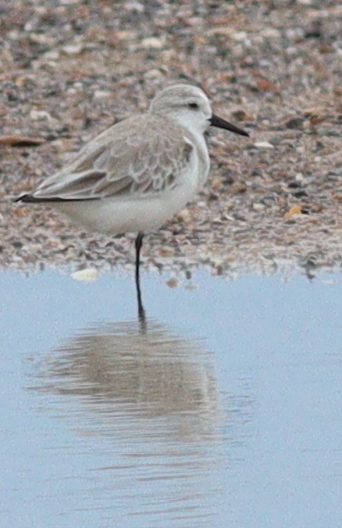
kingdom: Animalia
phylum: Chordata
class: Aves
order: Charadriiformes
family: Scolopacidae
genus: Calidris
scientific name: Calidris alba
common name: Sanderling
